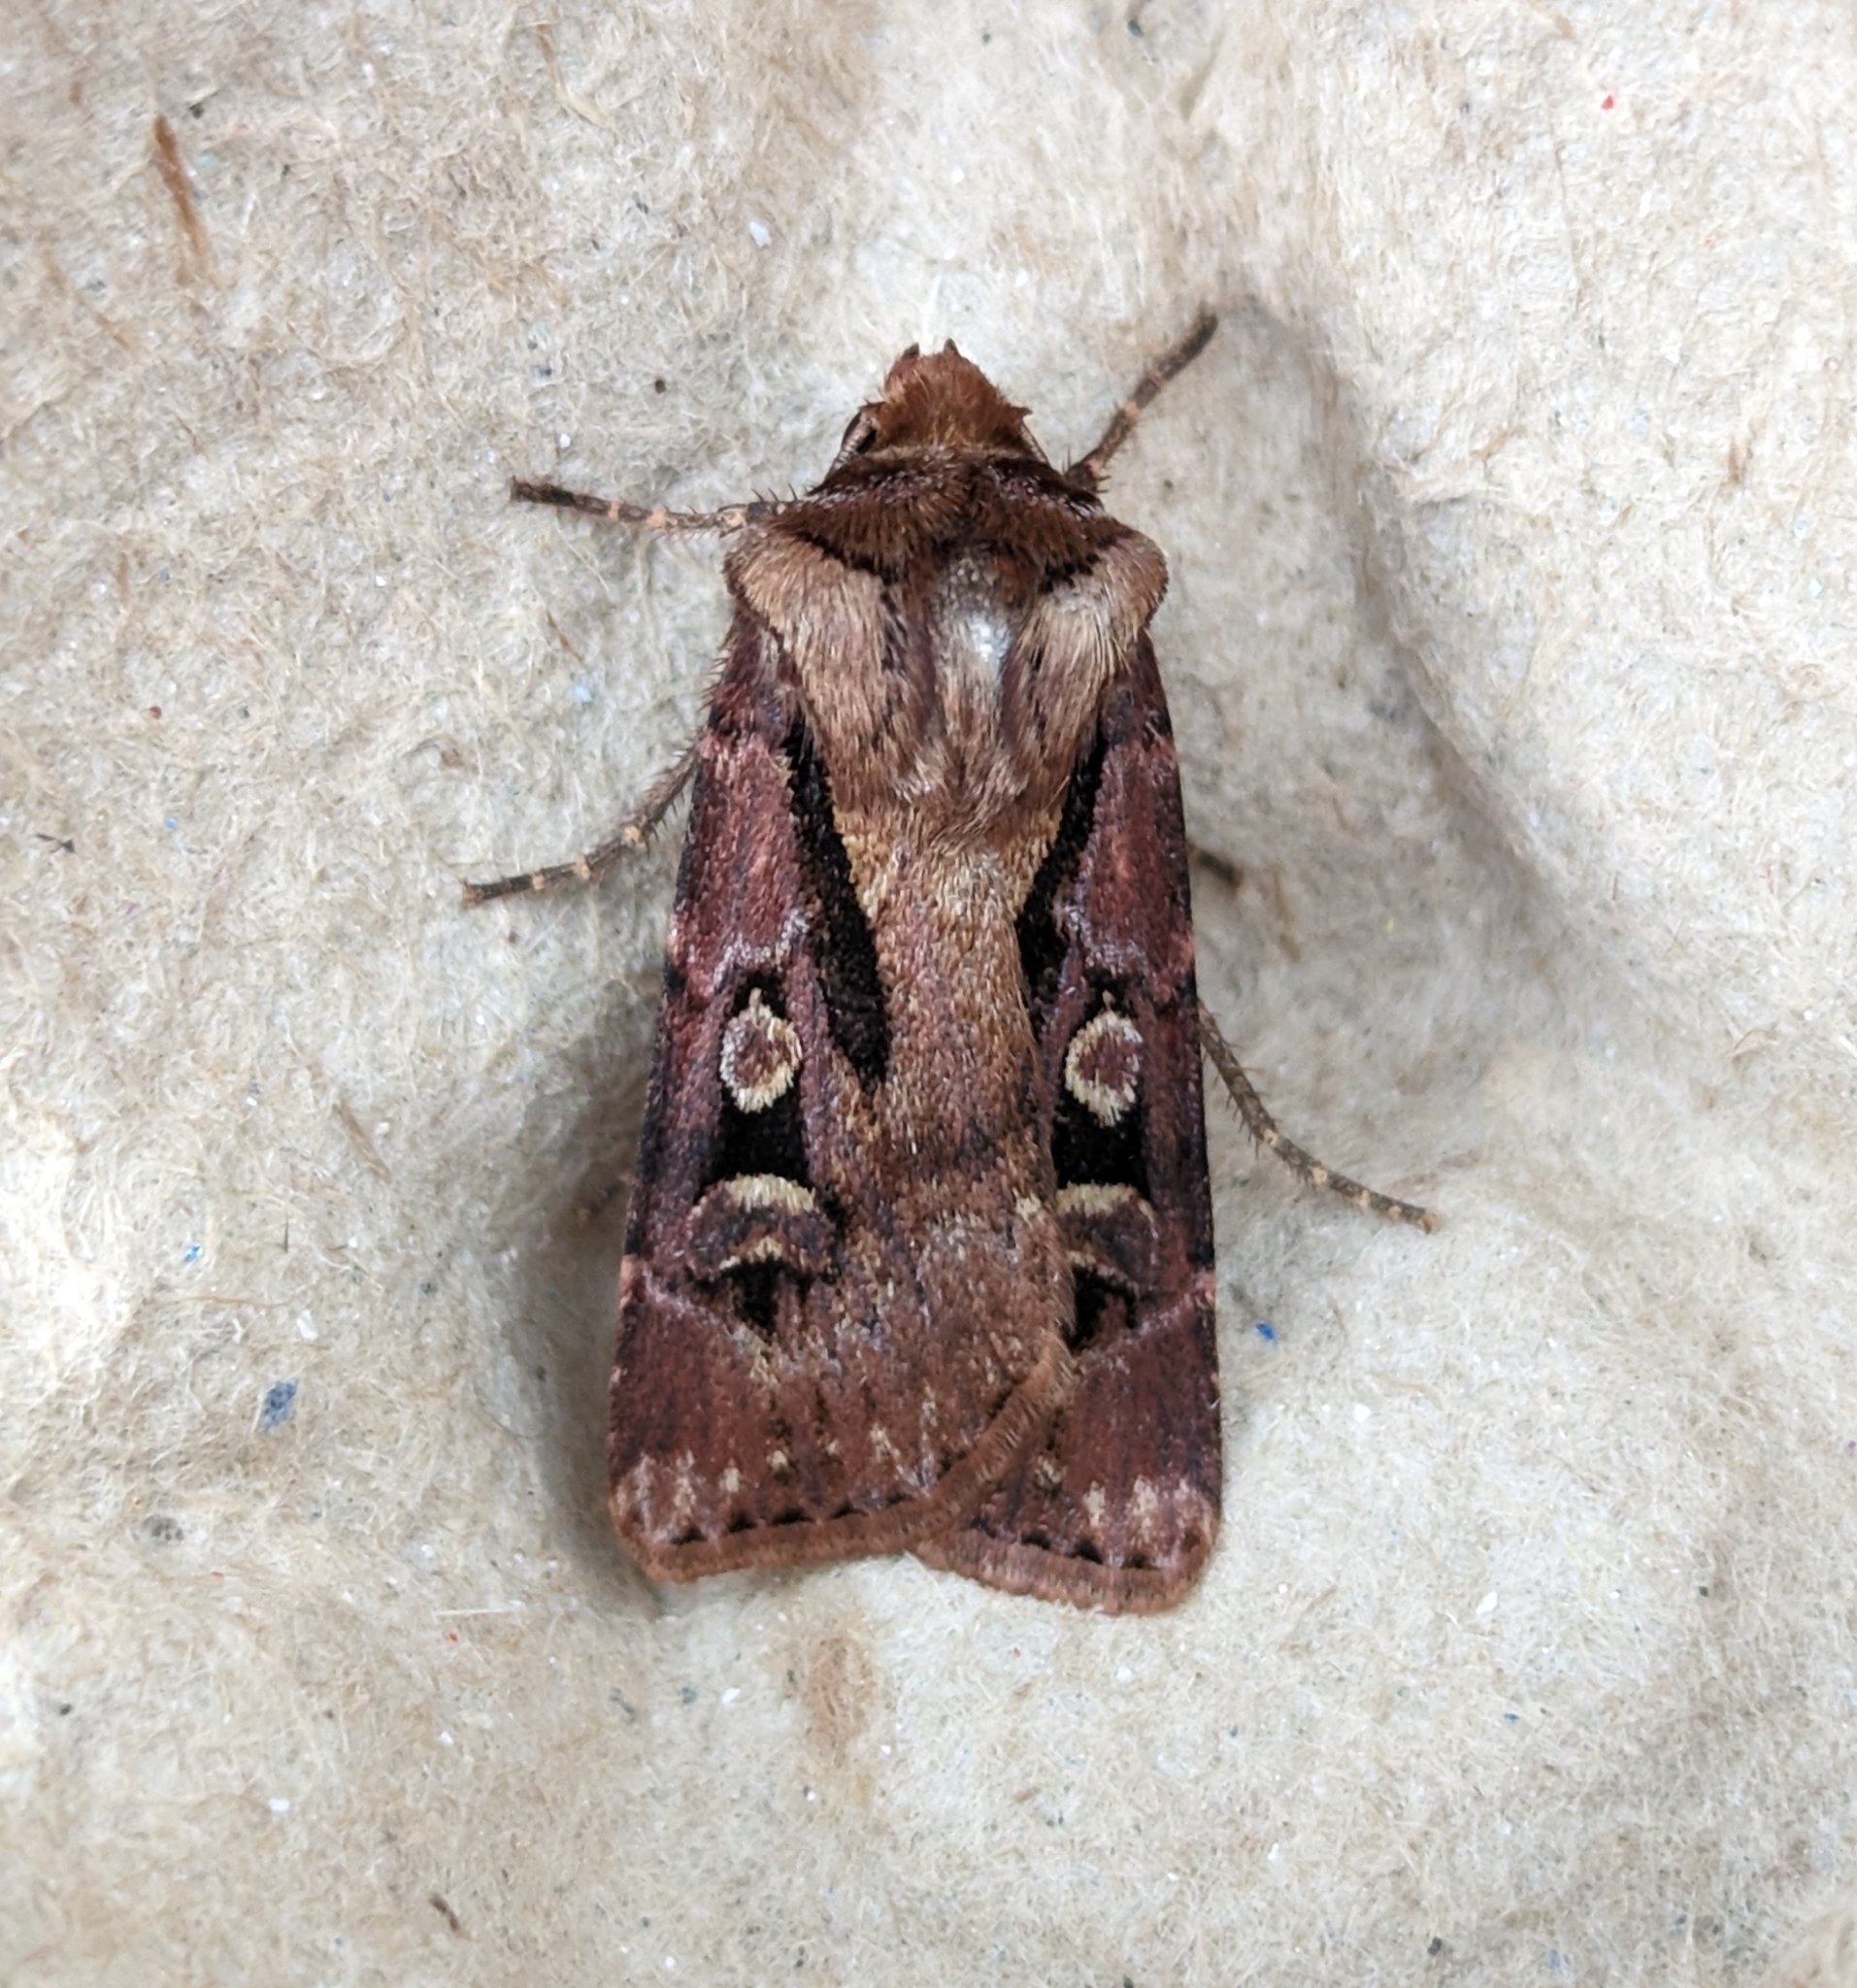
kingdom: Animalia
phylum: Arthropoda
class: Insecta
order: Lepidoptera
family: Noctuidae
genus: Agrotis
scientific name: Agrotis vancouverensis
